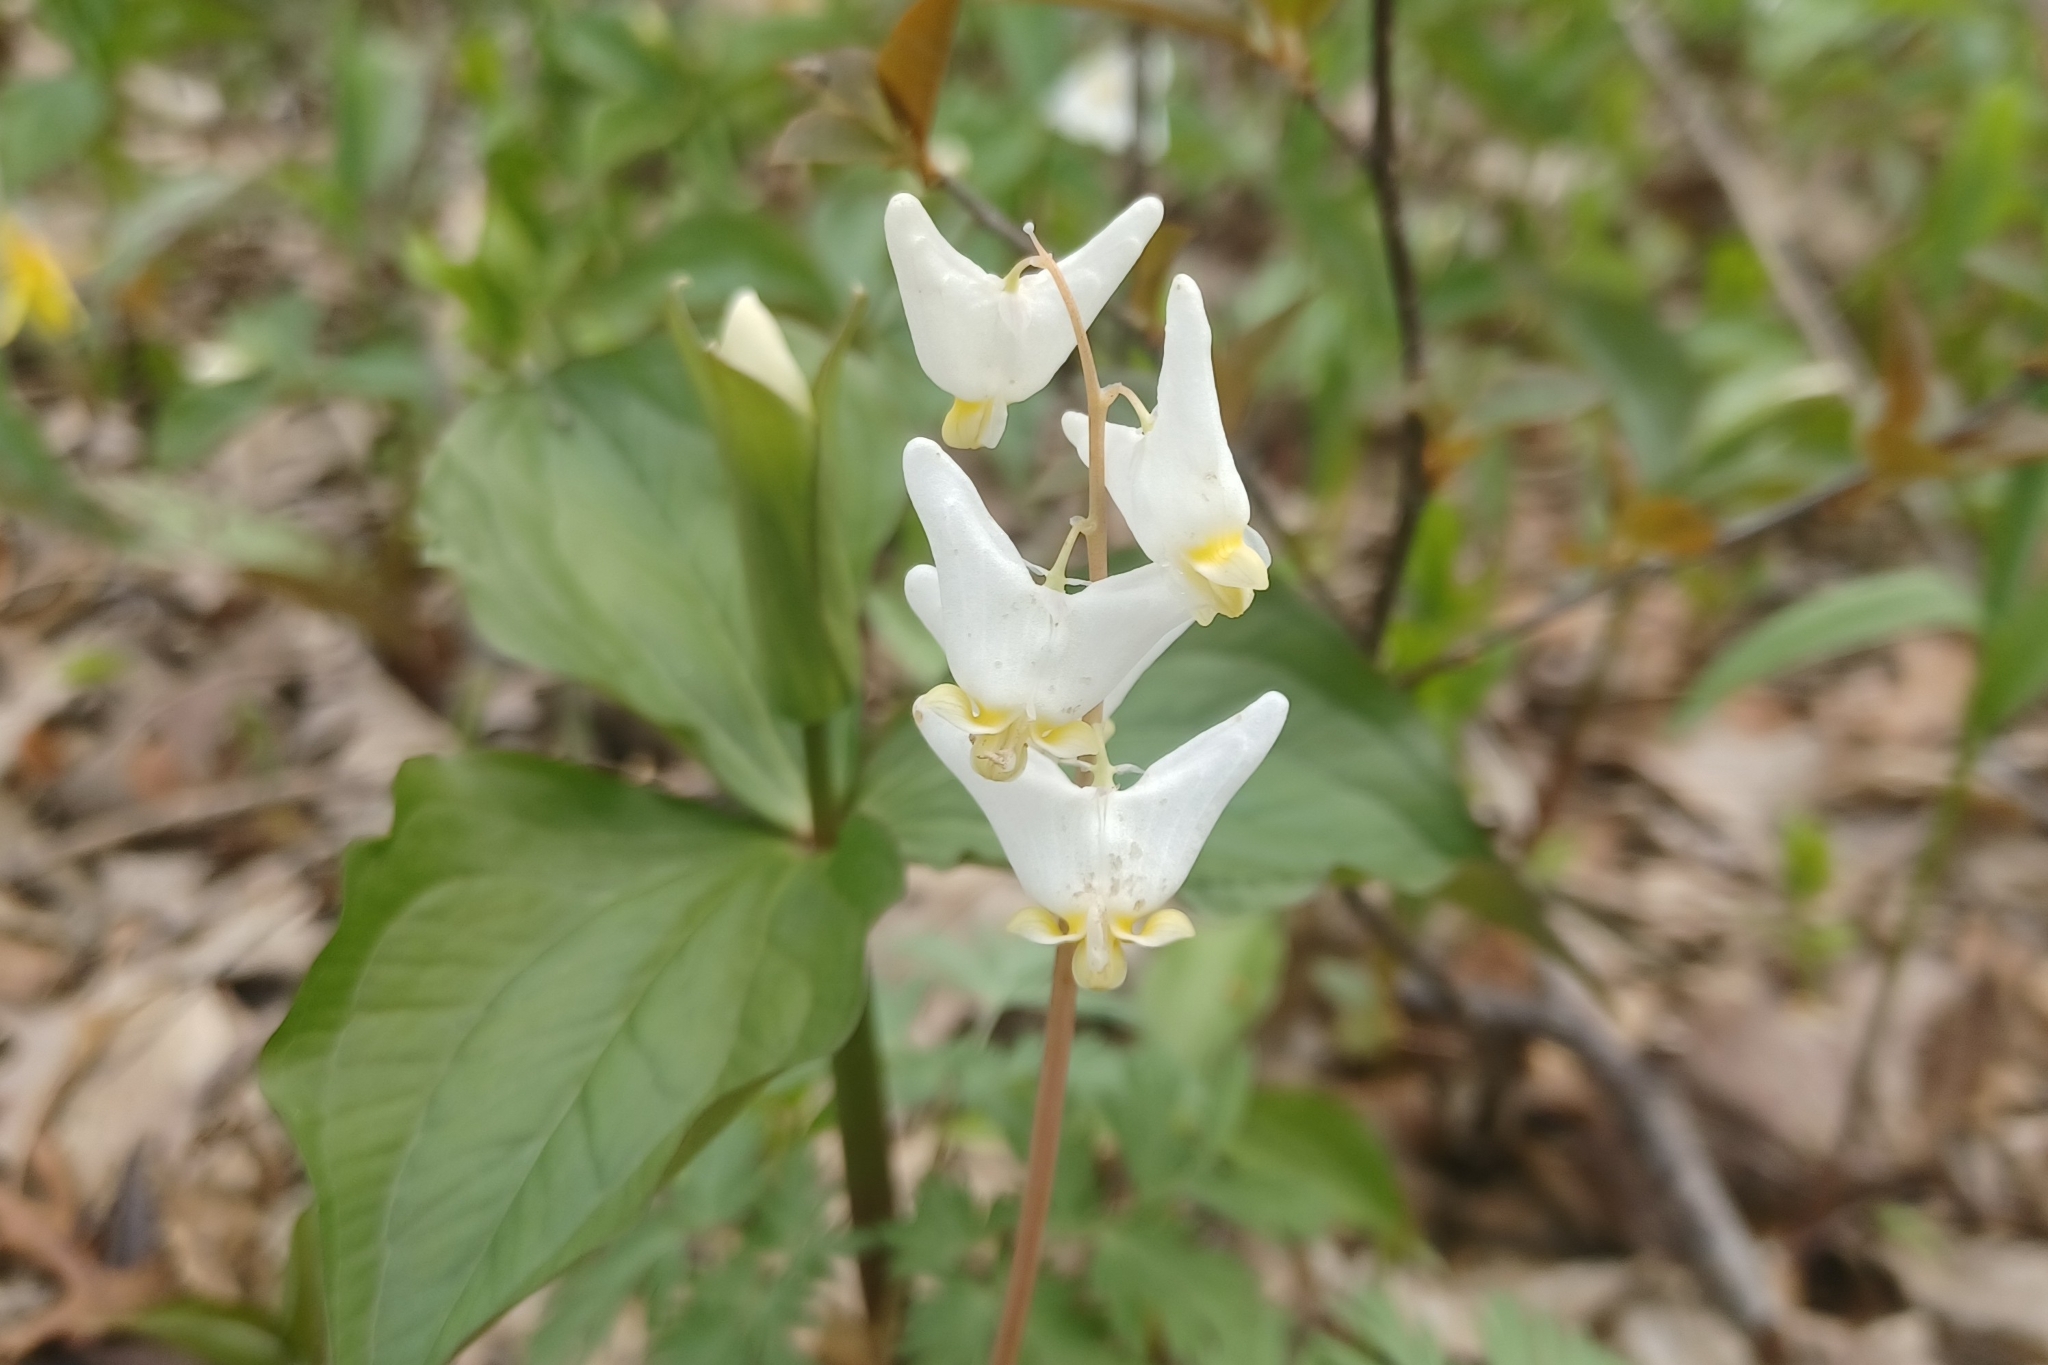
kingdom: Plantae
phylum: Tracheophyta
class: Magnoliopsida
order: Ranunculales
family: Papaveraceae
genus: Dicentra
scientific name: Dicentra cucullaria
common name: Dutchman's breeches
